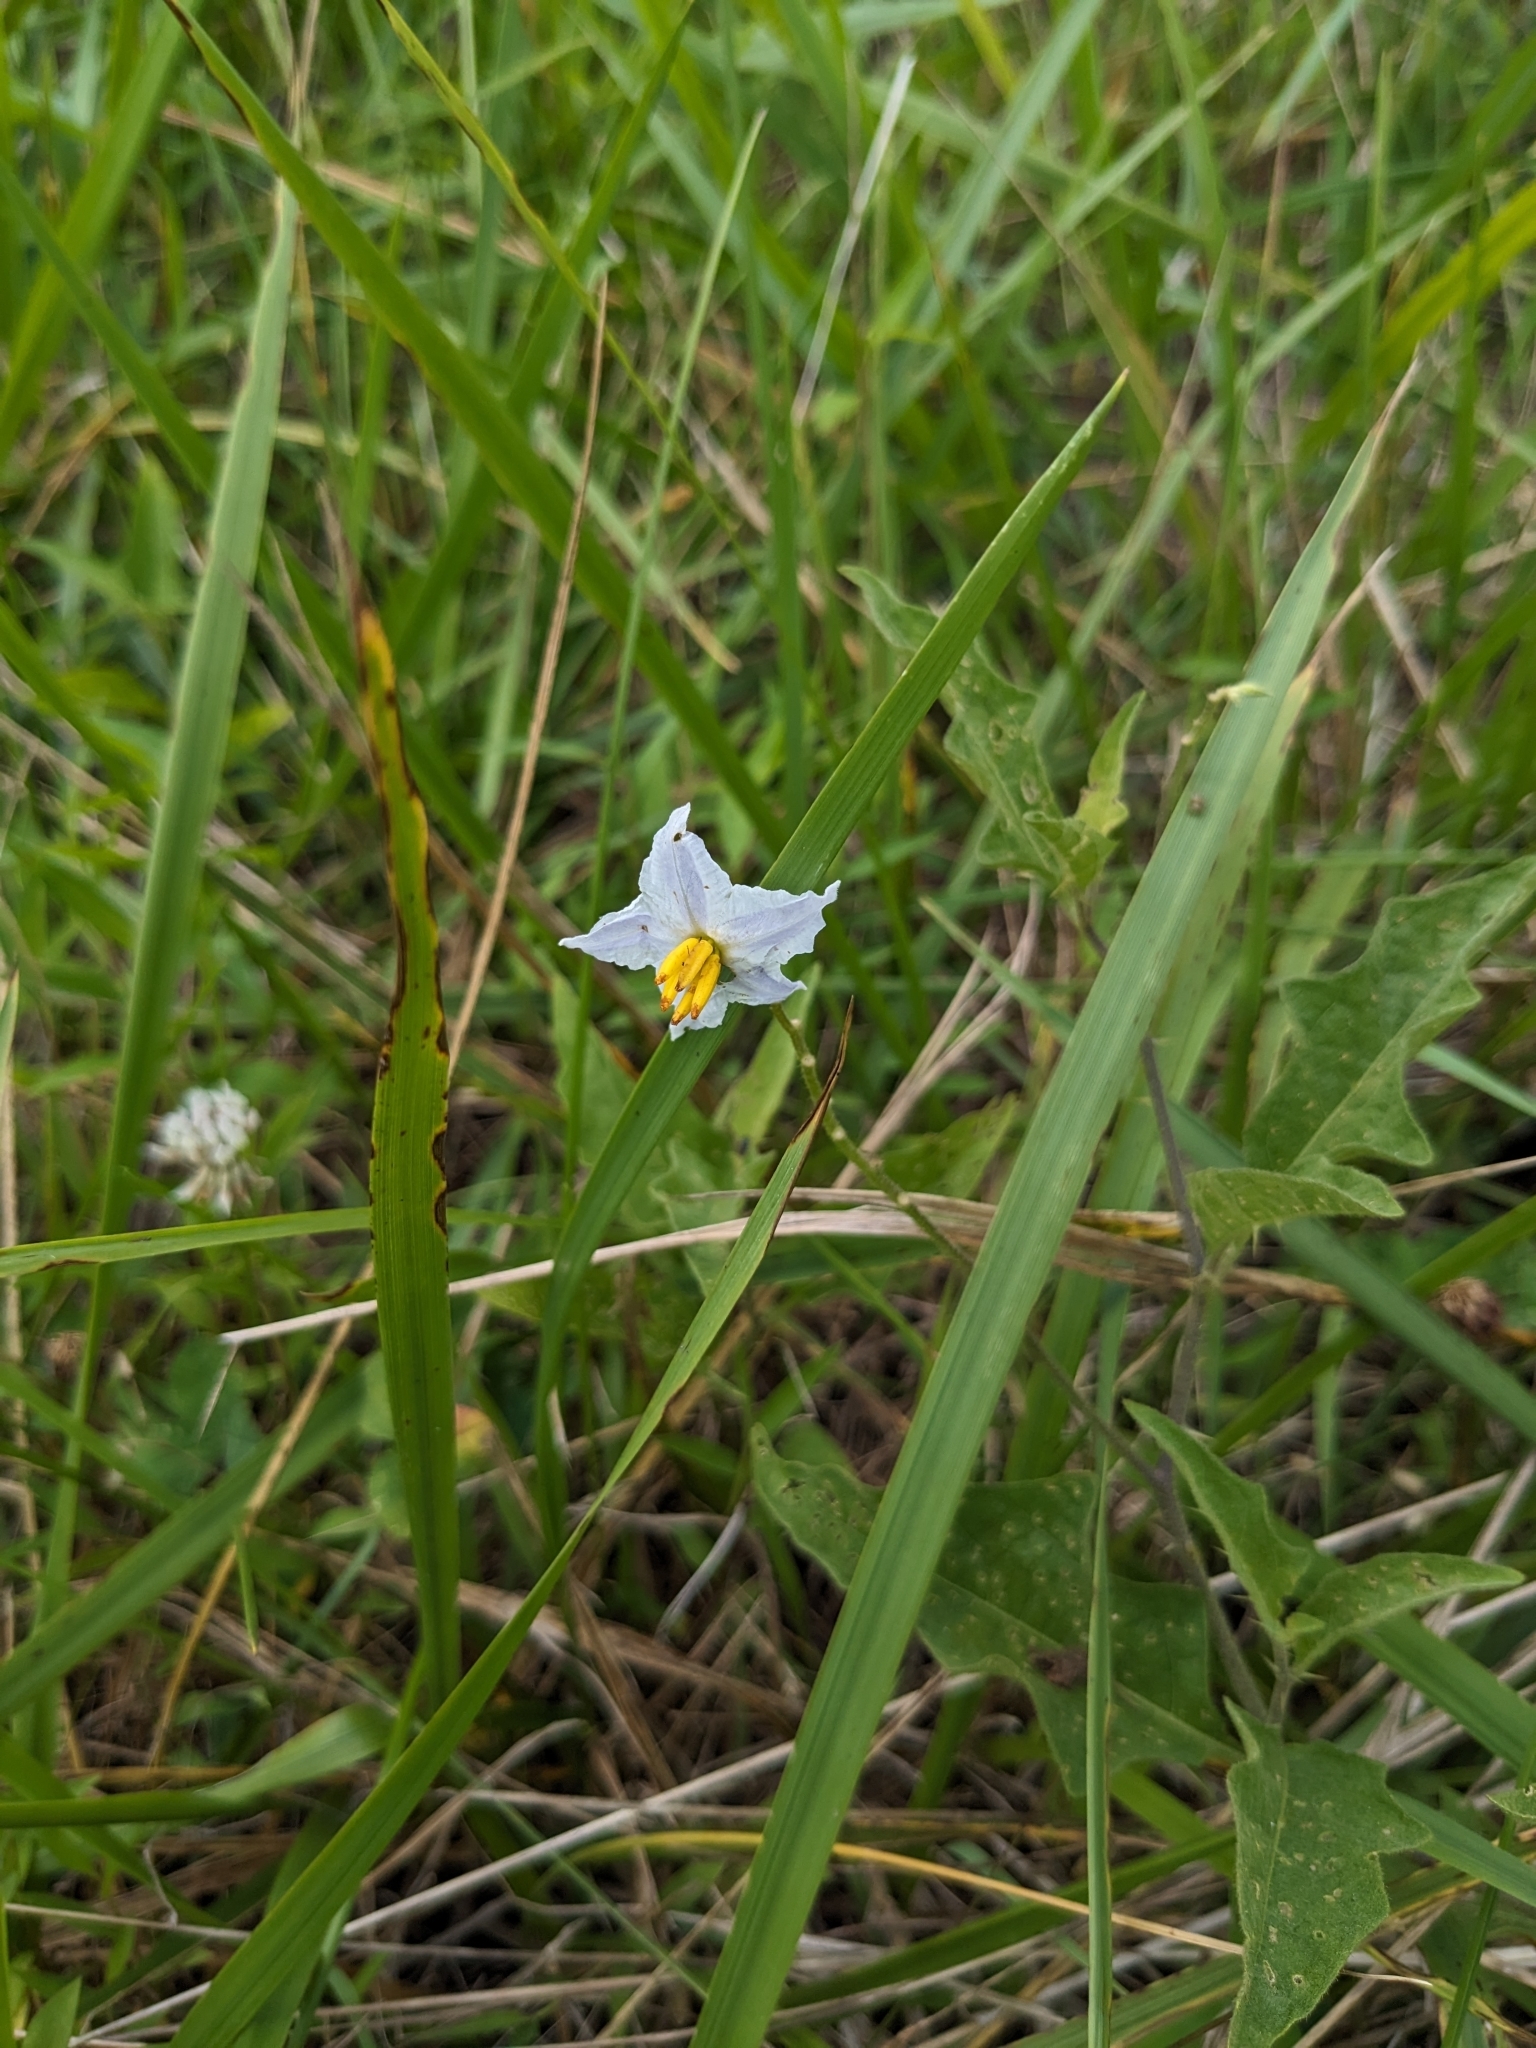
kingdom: Plantae
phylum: Tracheophyta
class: Magnoliopsida
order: Solanales
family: Solanaceae
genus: Solanum
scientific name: Solanum carolinense
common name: Horse-nettle
